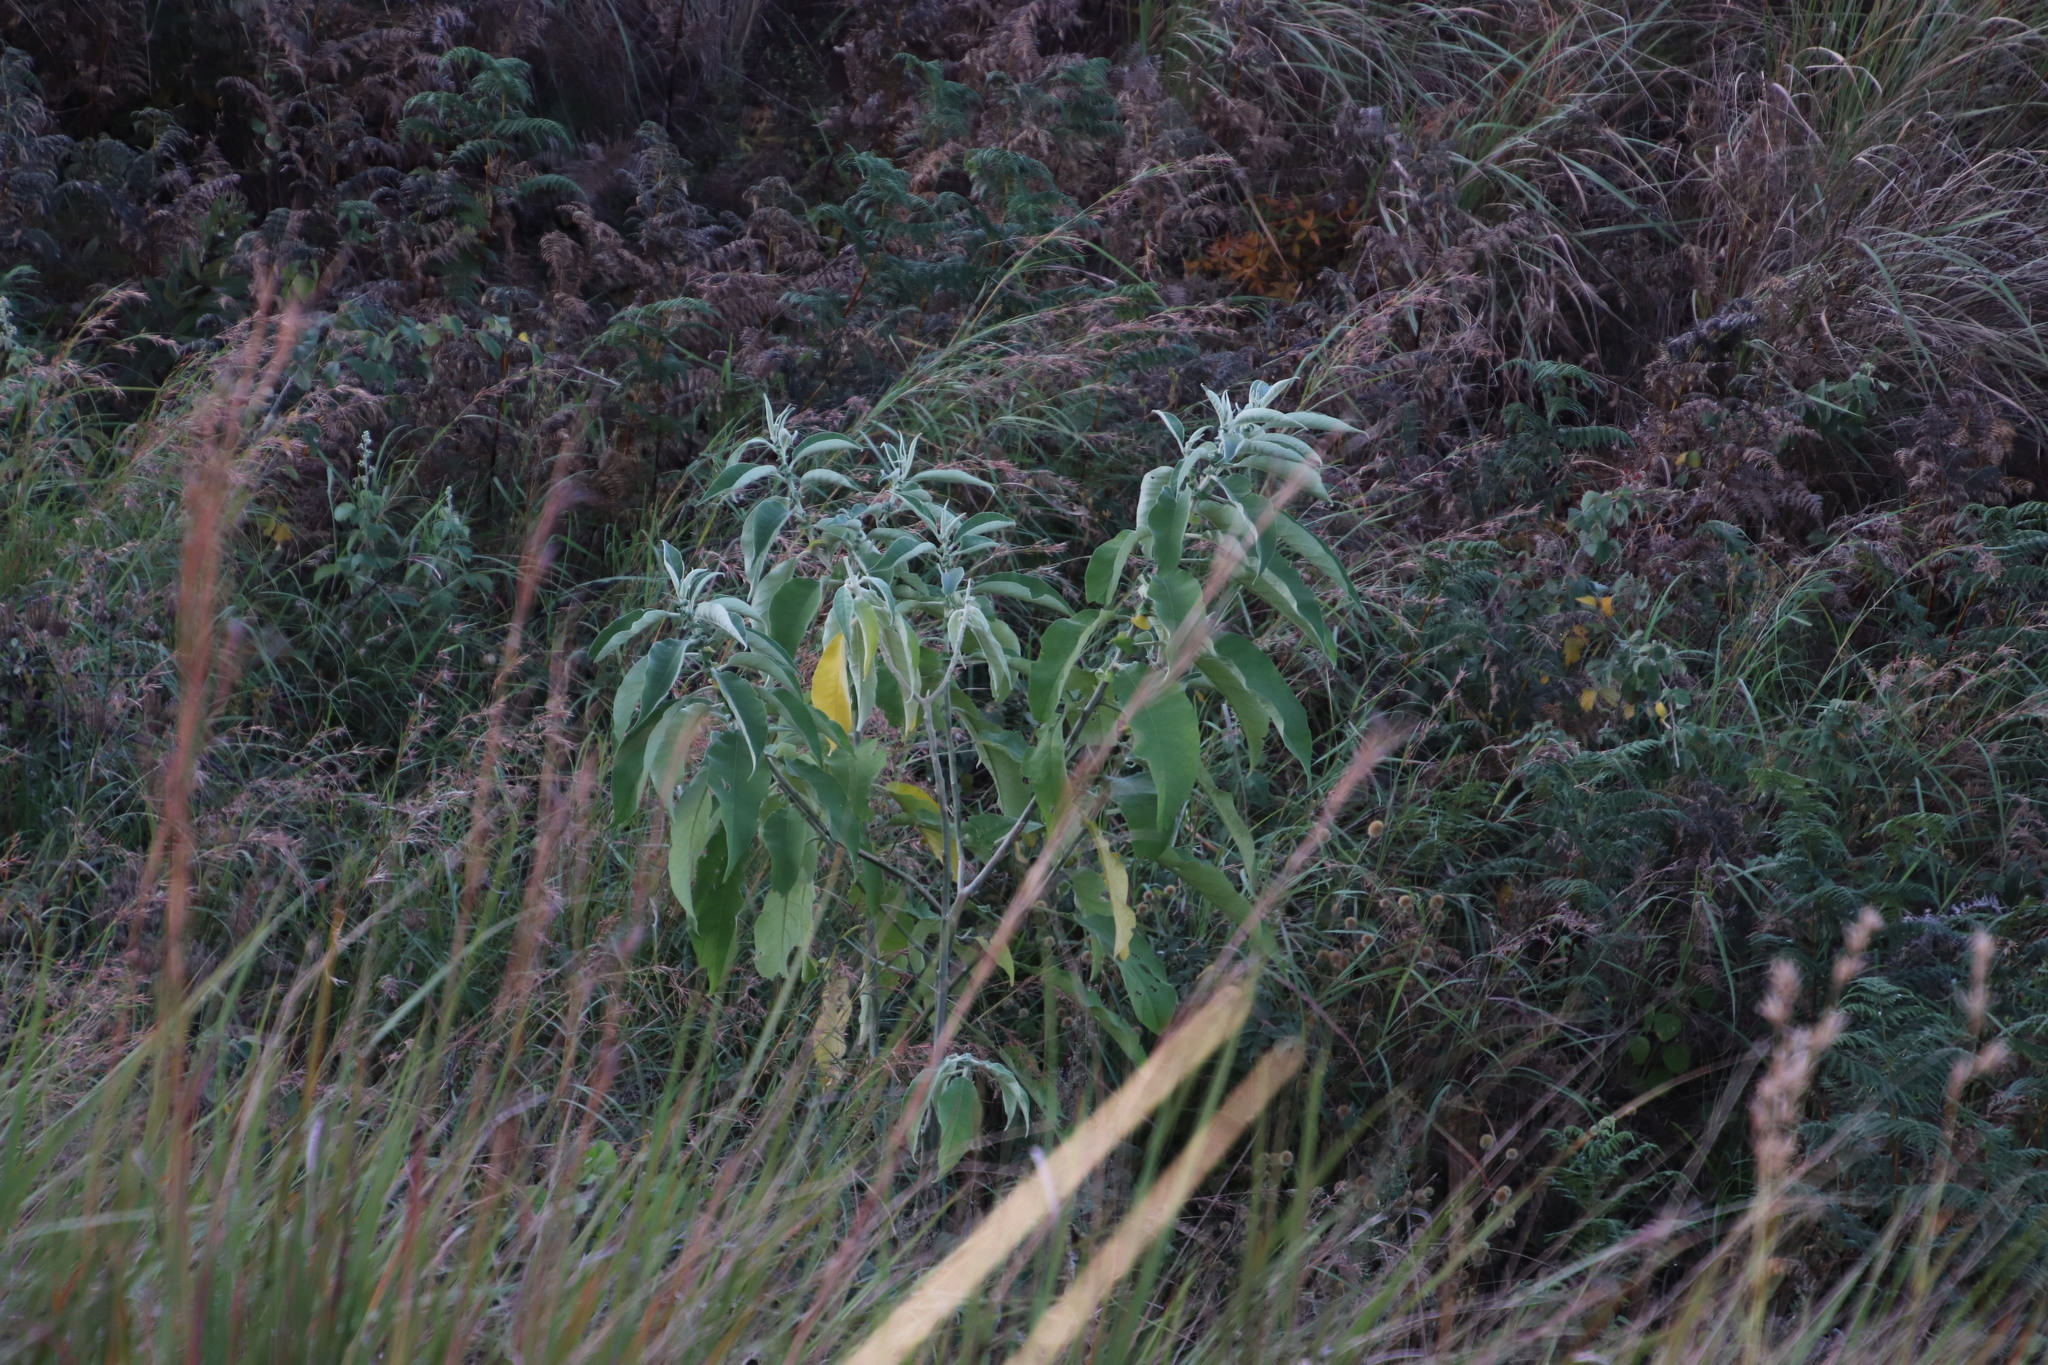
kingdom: Plantae
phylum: Tracheophyta
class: Magnoliopsida
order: Solanales
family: Solanaceae
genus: Solanum
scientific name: Solanum mauritianum
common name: Earleaf nightshade
